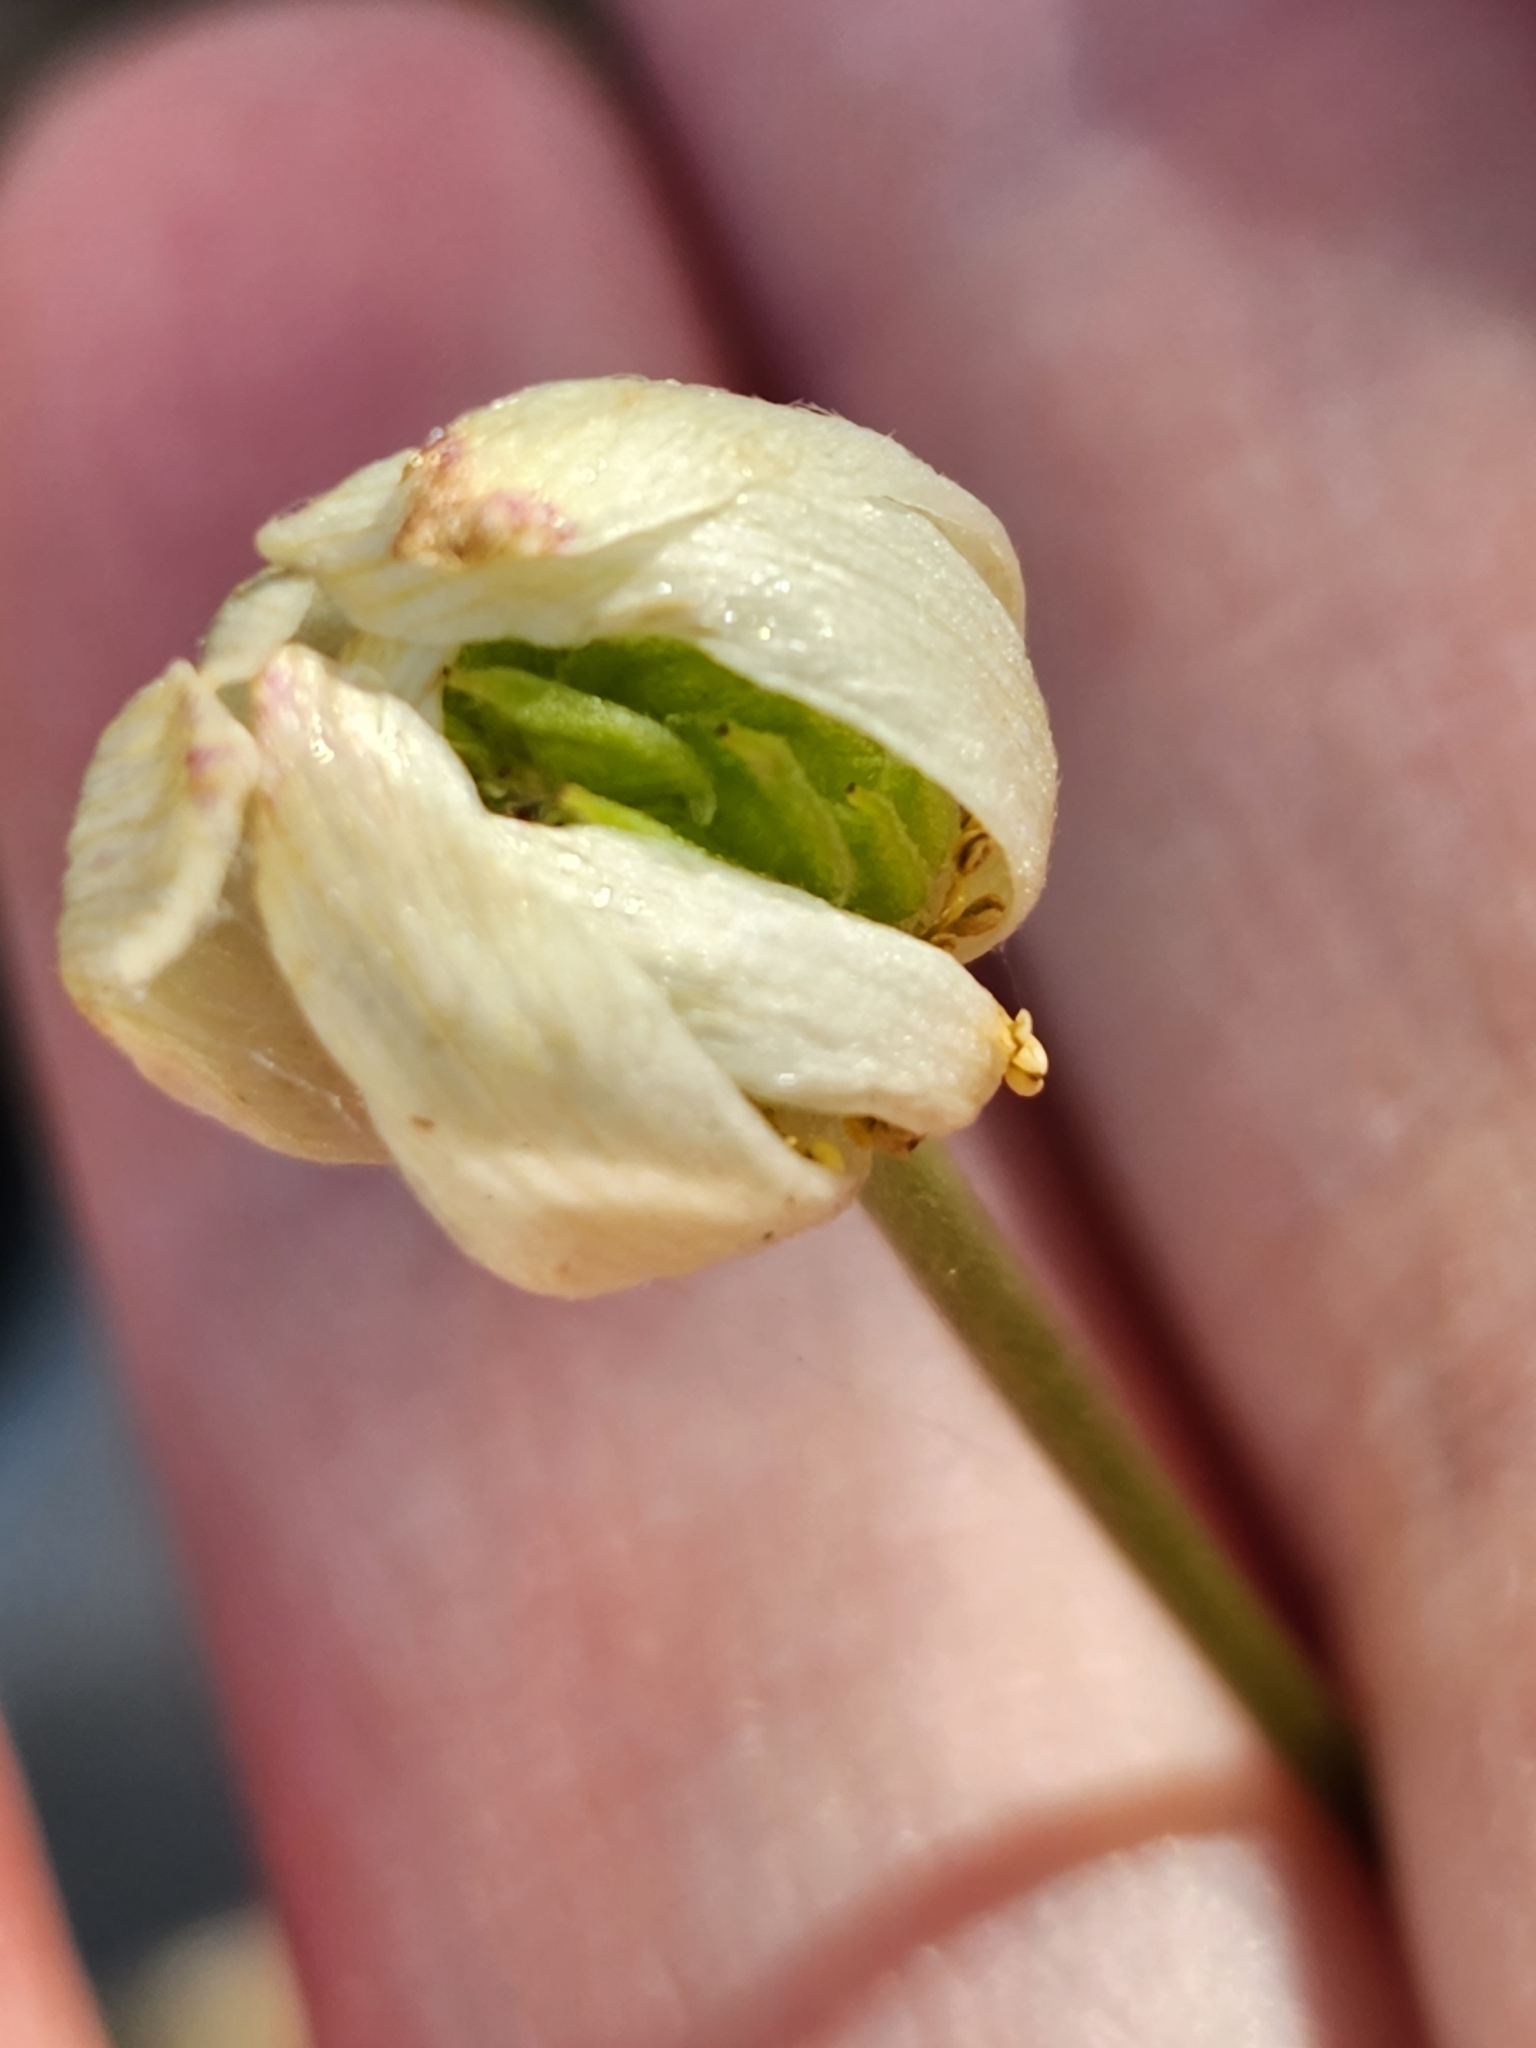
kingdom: Plantae
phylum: Tracheophyta
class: Magnoliopsida
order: Ranunculales
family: Ranunculaceae
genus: Anemone
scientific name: Anemone edwardsiana
